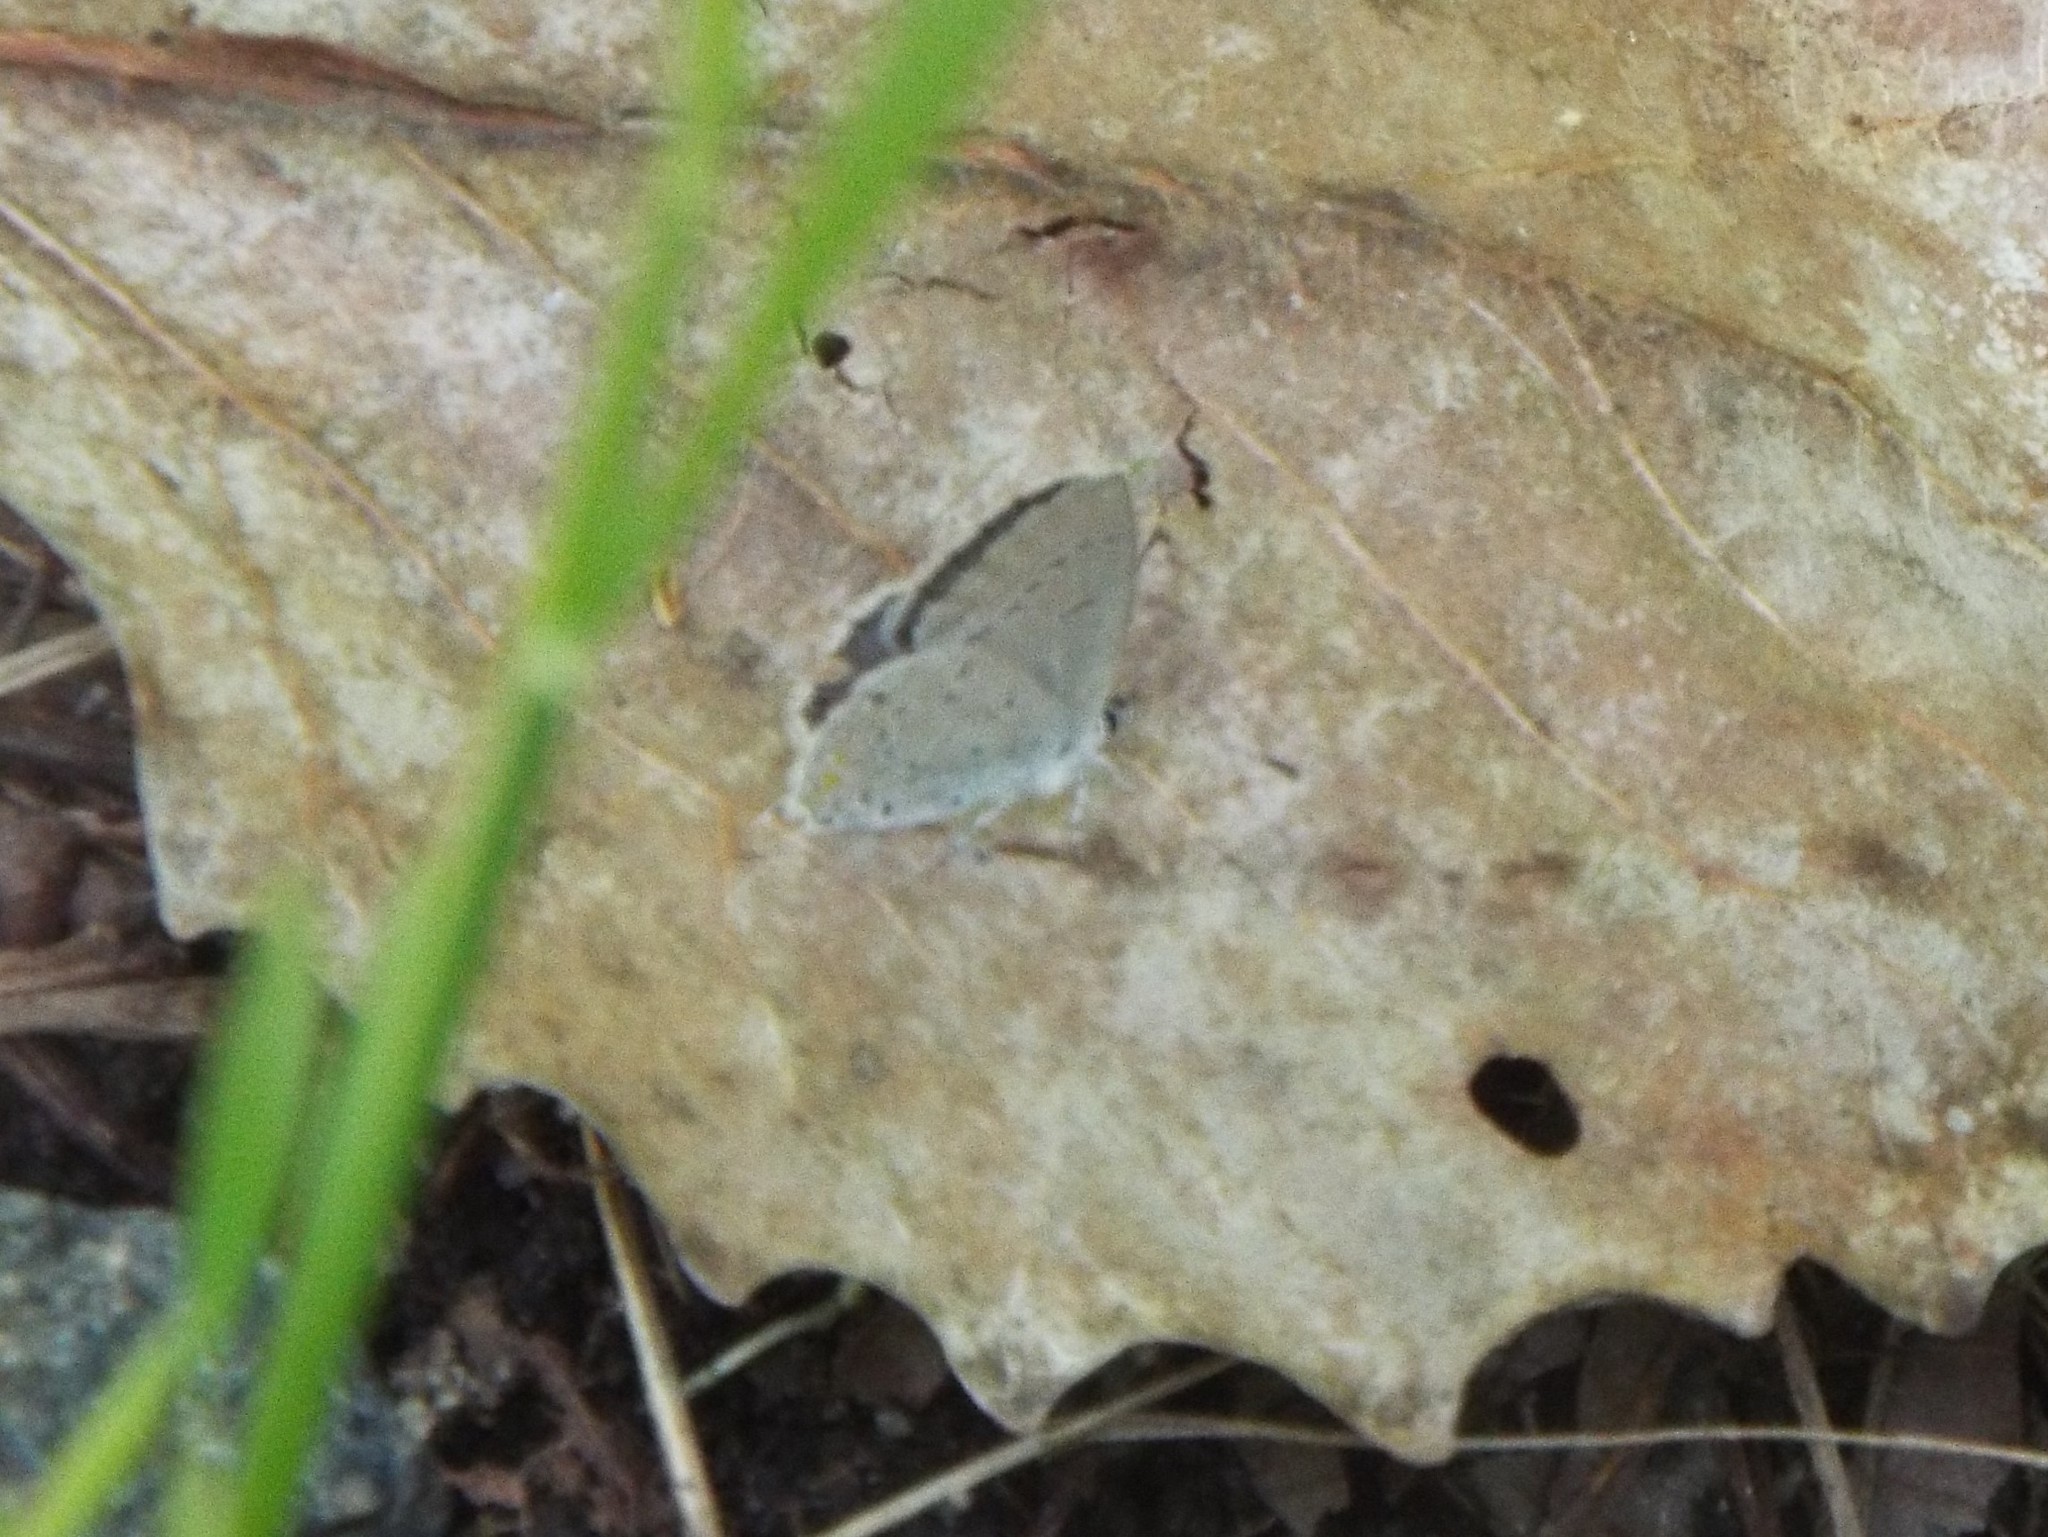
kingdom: Animalia
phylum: Arthropoda
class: Insecta
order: Lepidoptera
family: Lycaenidae
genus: Elkalyce
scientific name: Elkalyce comyntas
